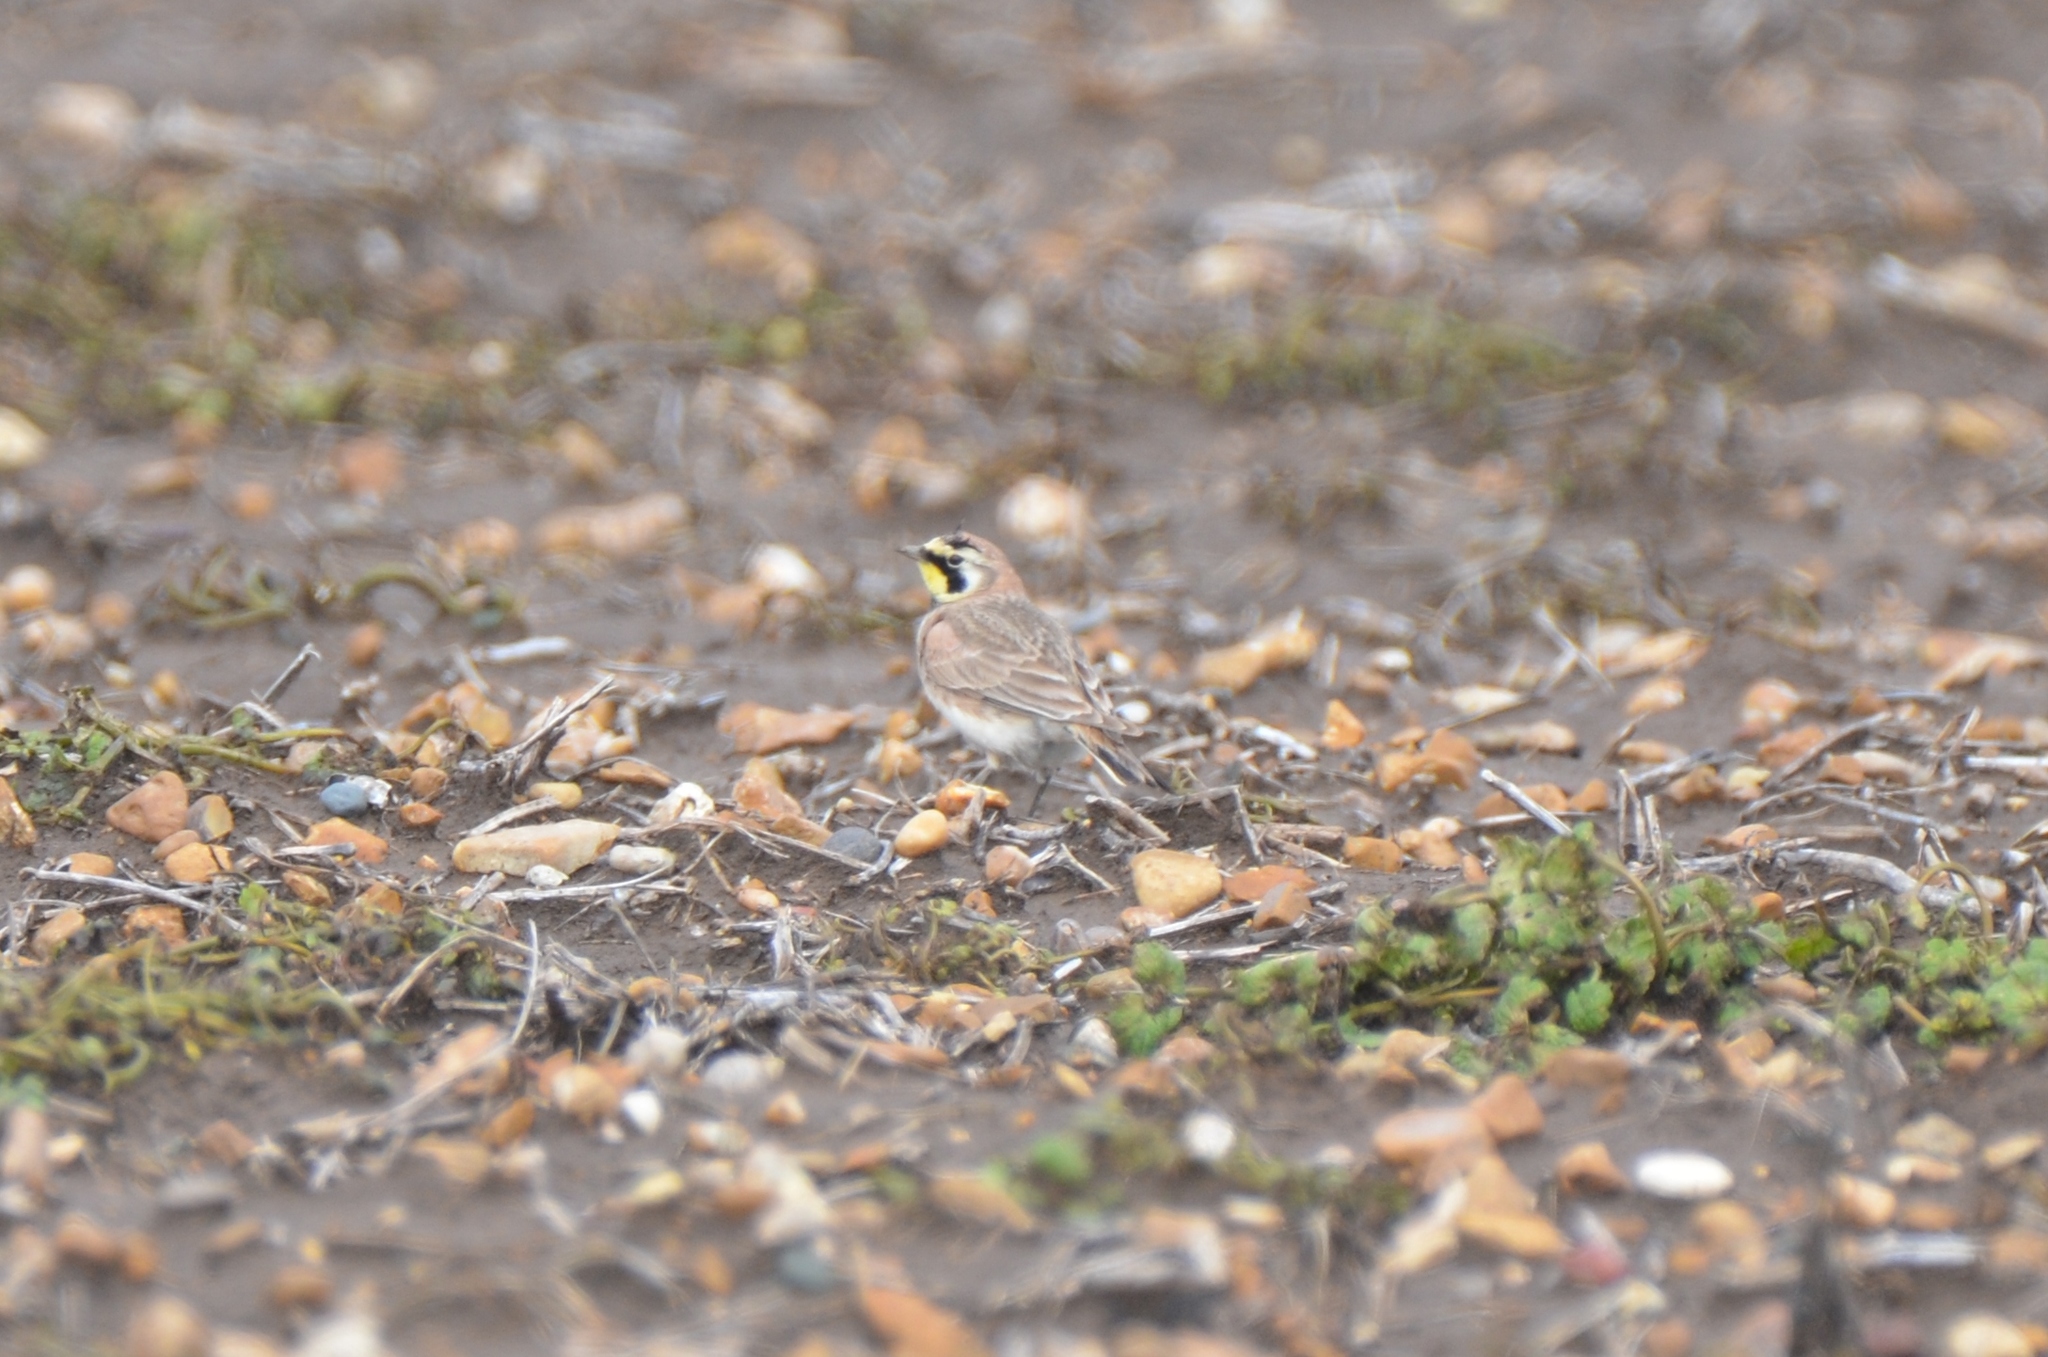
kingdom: Animalia
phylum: Chordata
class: Aves
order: Passeriformes
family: Alaudidae
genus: Eremophila
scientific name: Eremophila alpestris
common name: Horned lark
